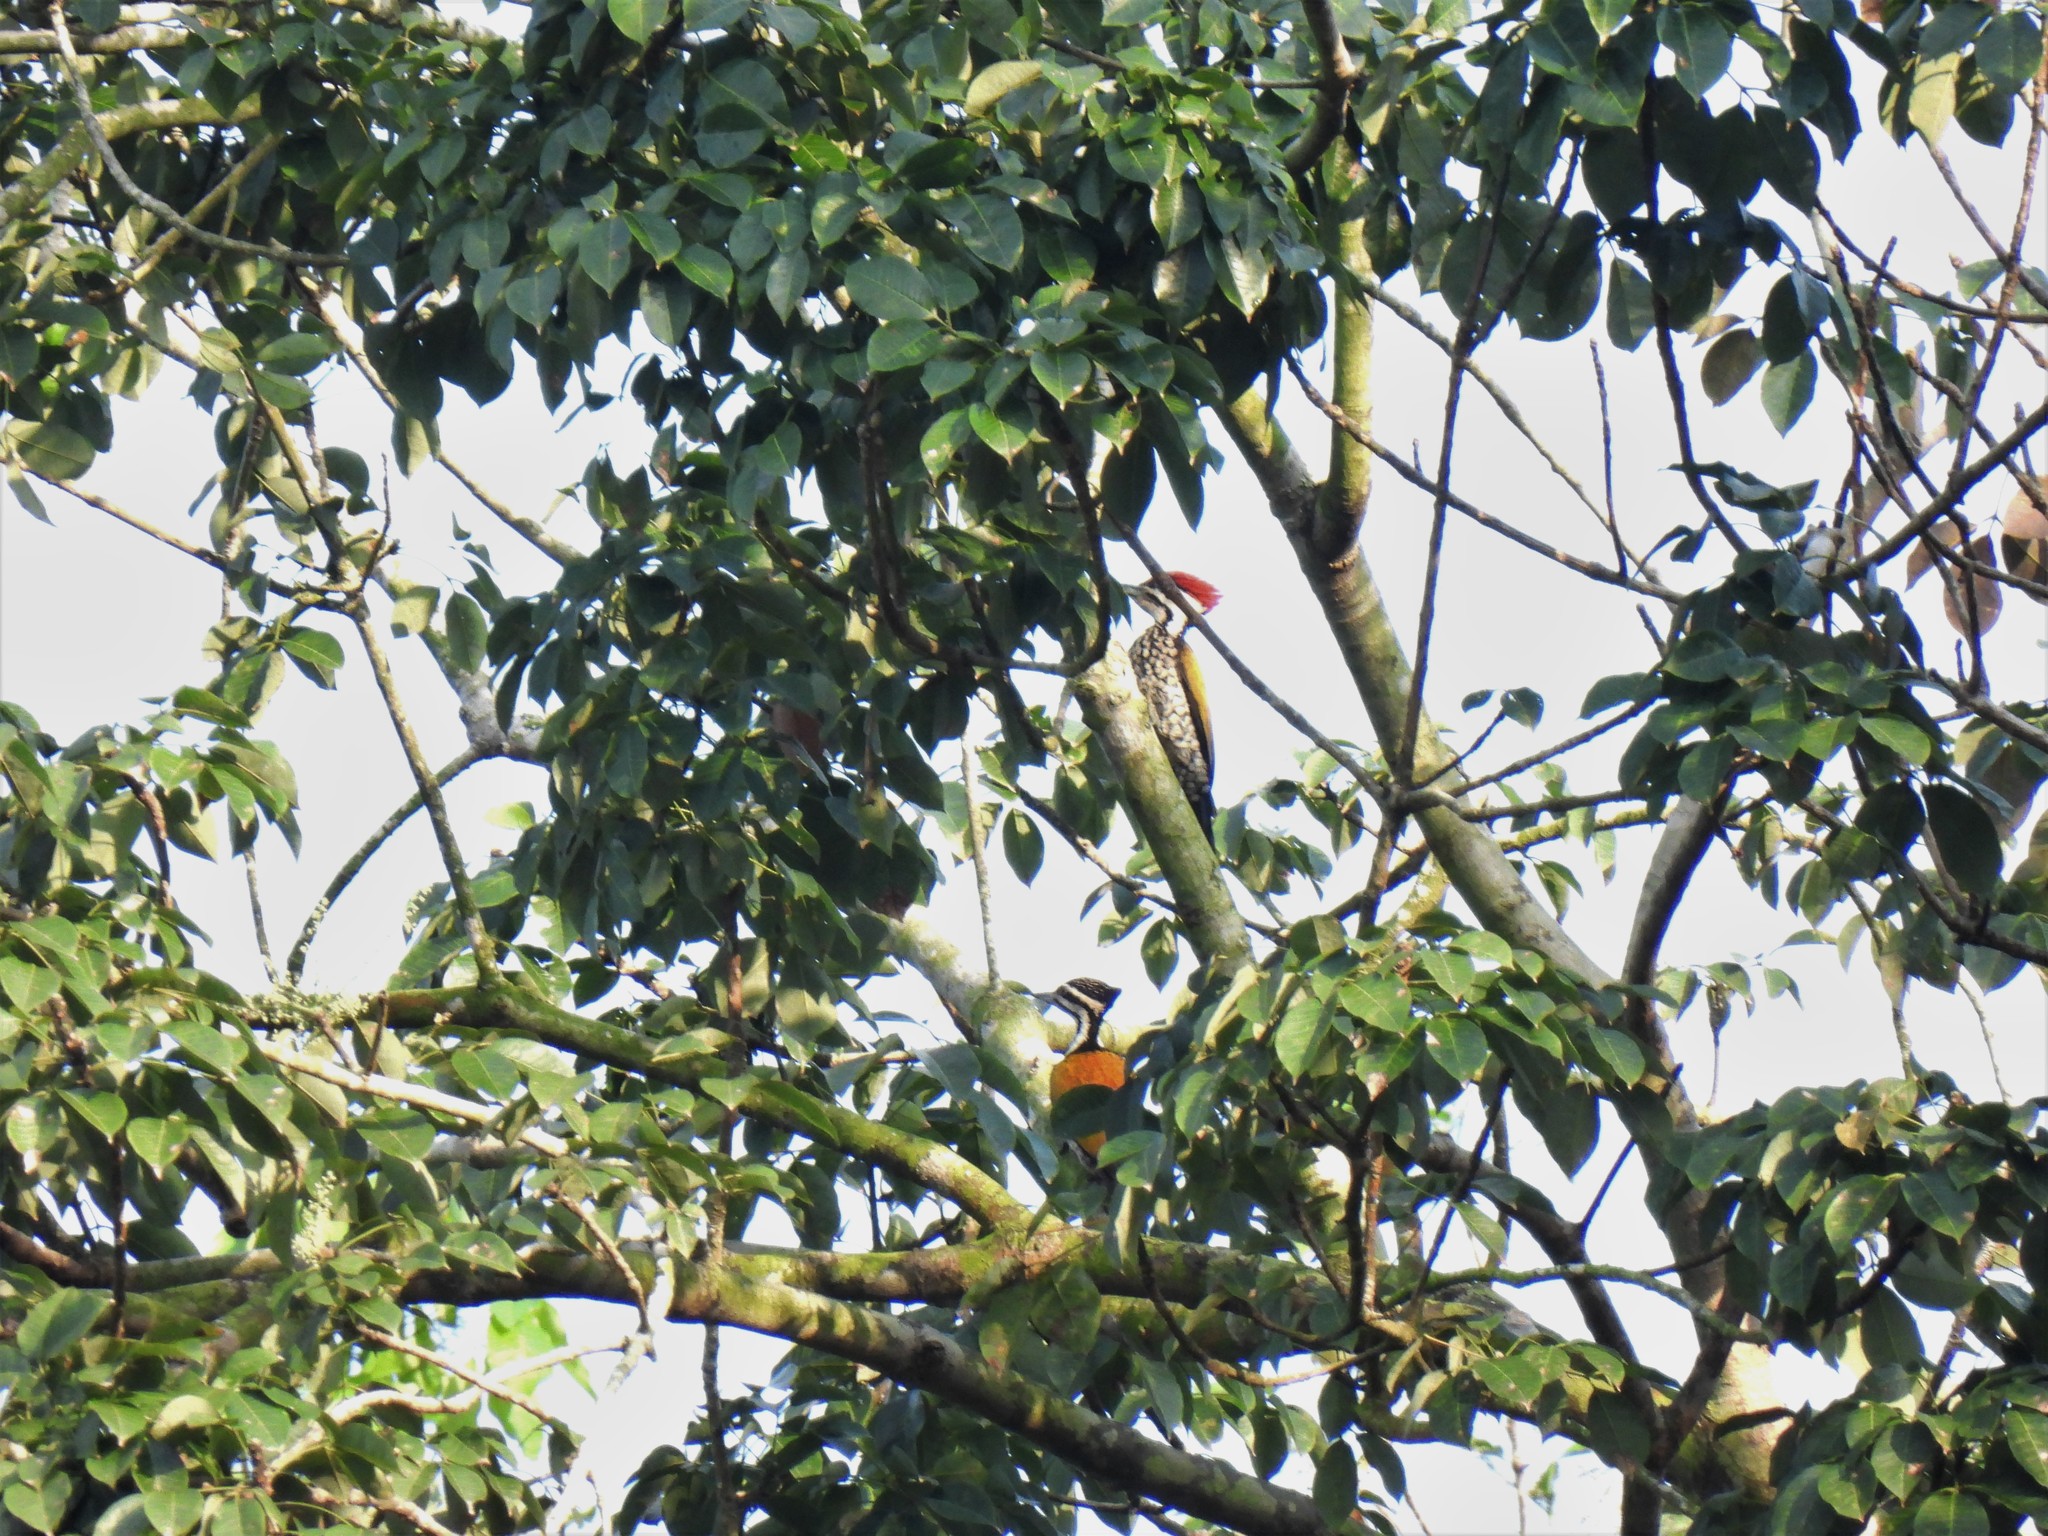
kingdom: Animalia
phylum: Chordata
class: Aves
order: Piciformes
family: Picidae
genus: Dinopium
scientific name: Dinopium javanense
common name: Common flameback
